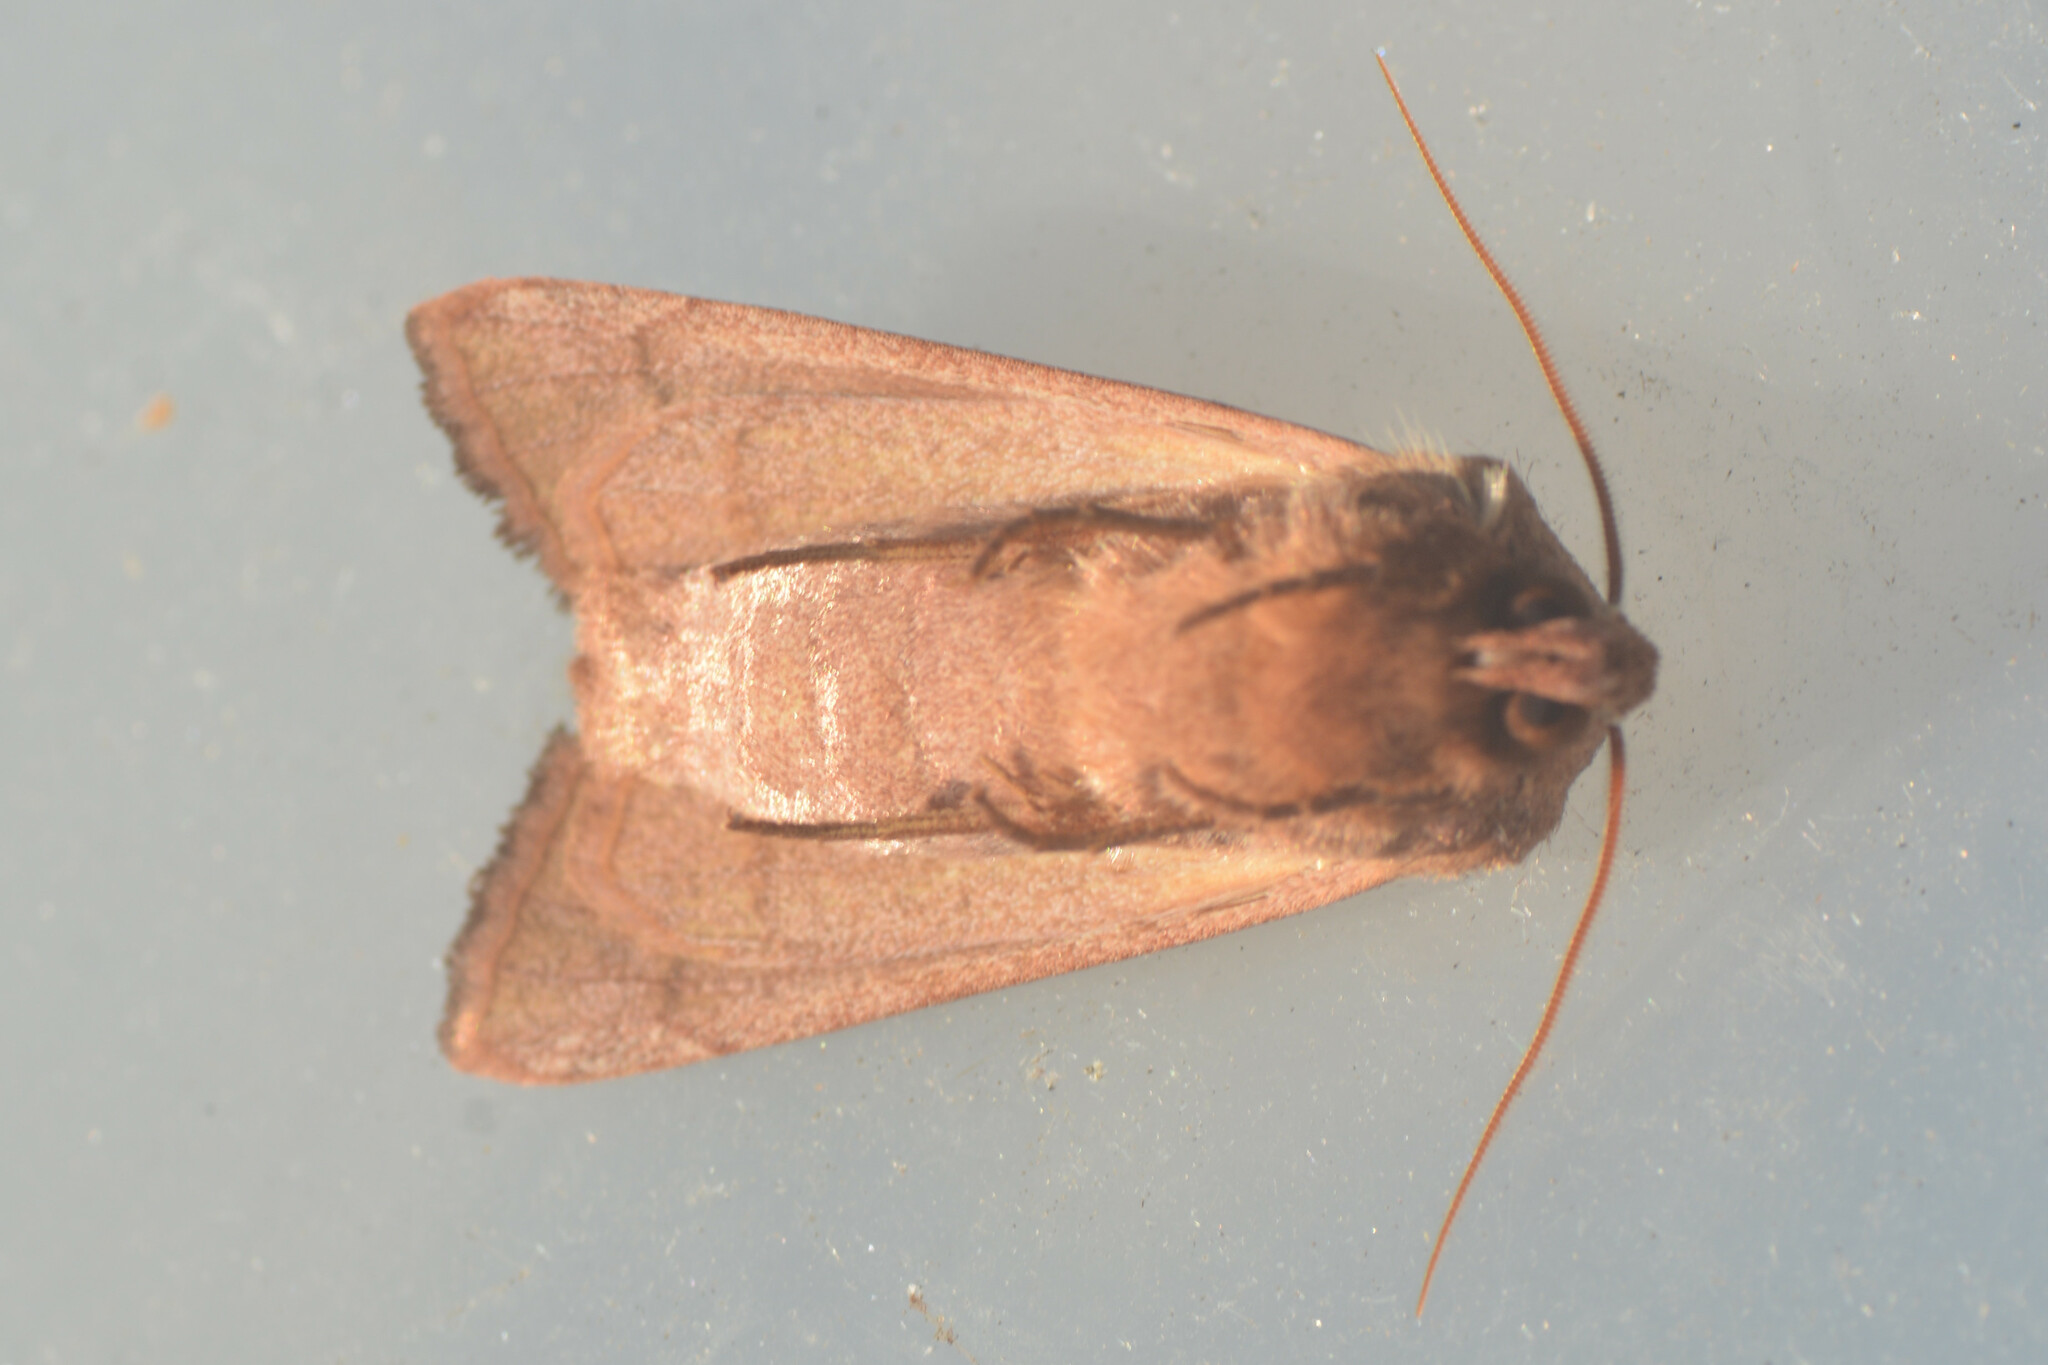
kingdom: Animalia
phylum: Arthropoda
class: Insecta
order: Lepidoptera
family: Noctuidae
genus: Hydraecia
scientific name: Hydraecia micacea
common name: Rosy rustic
